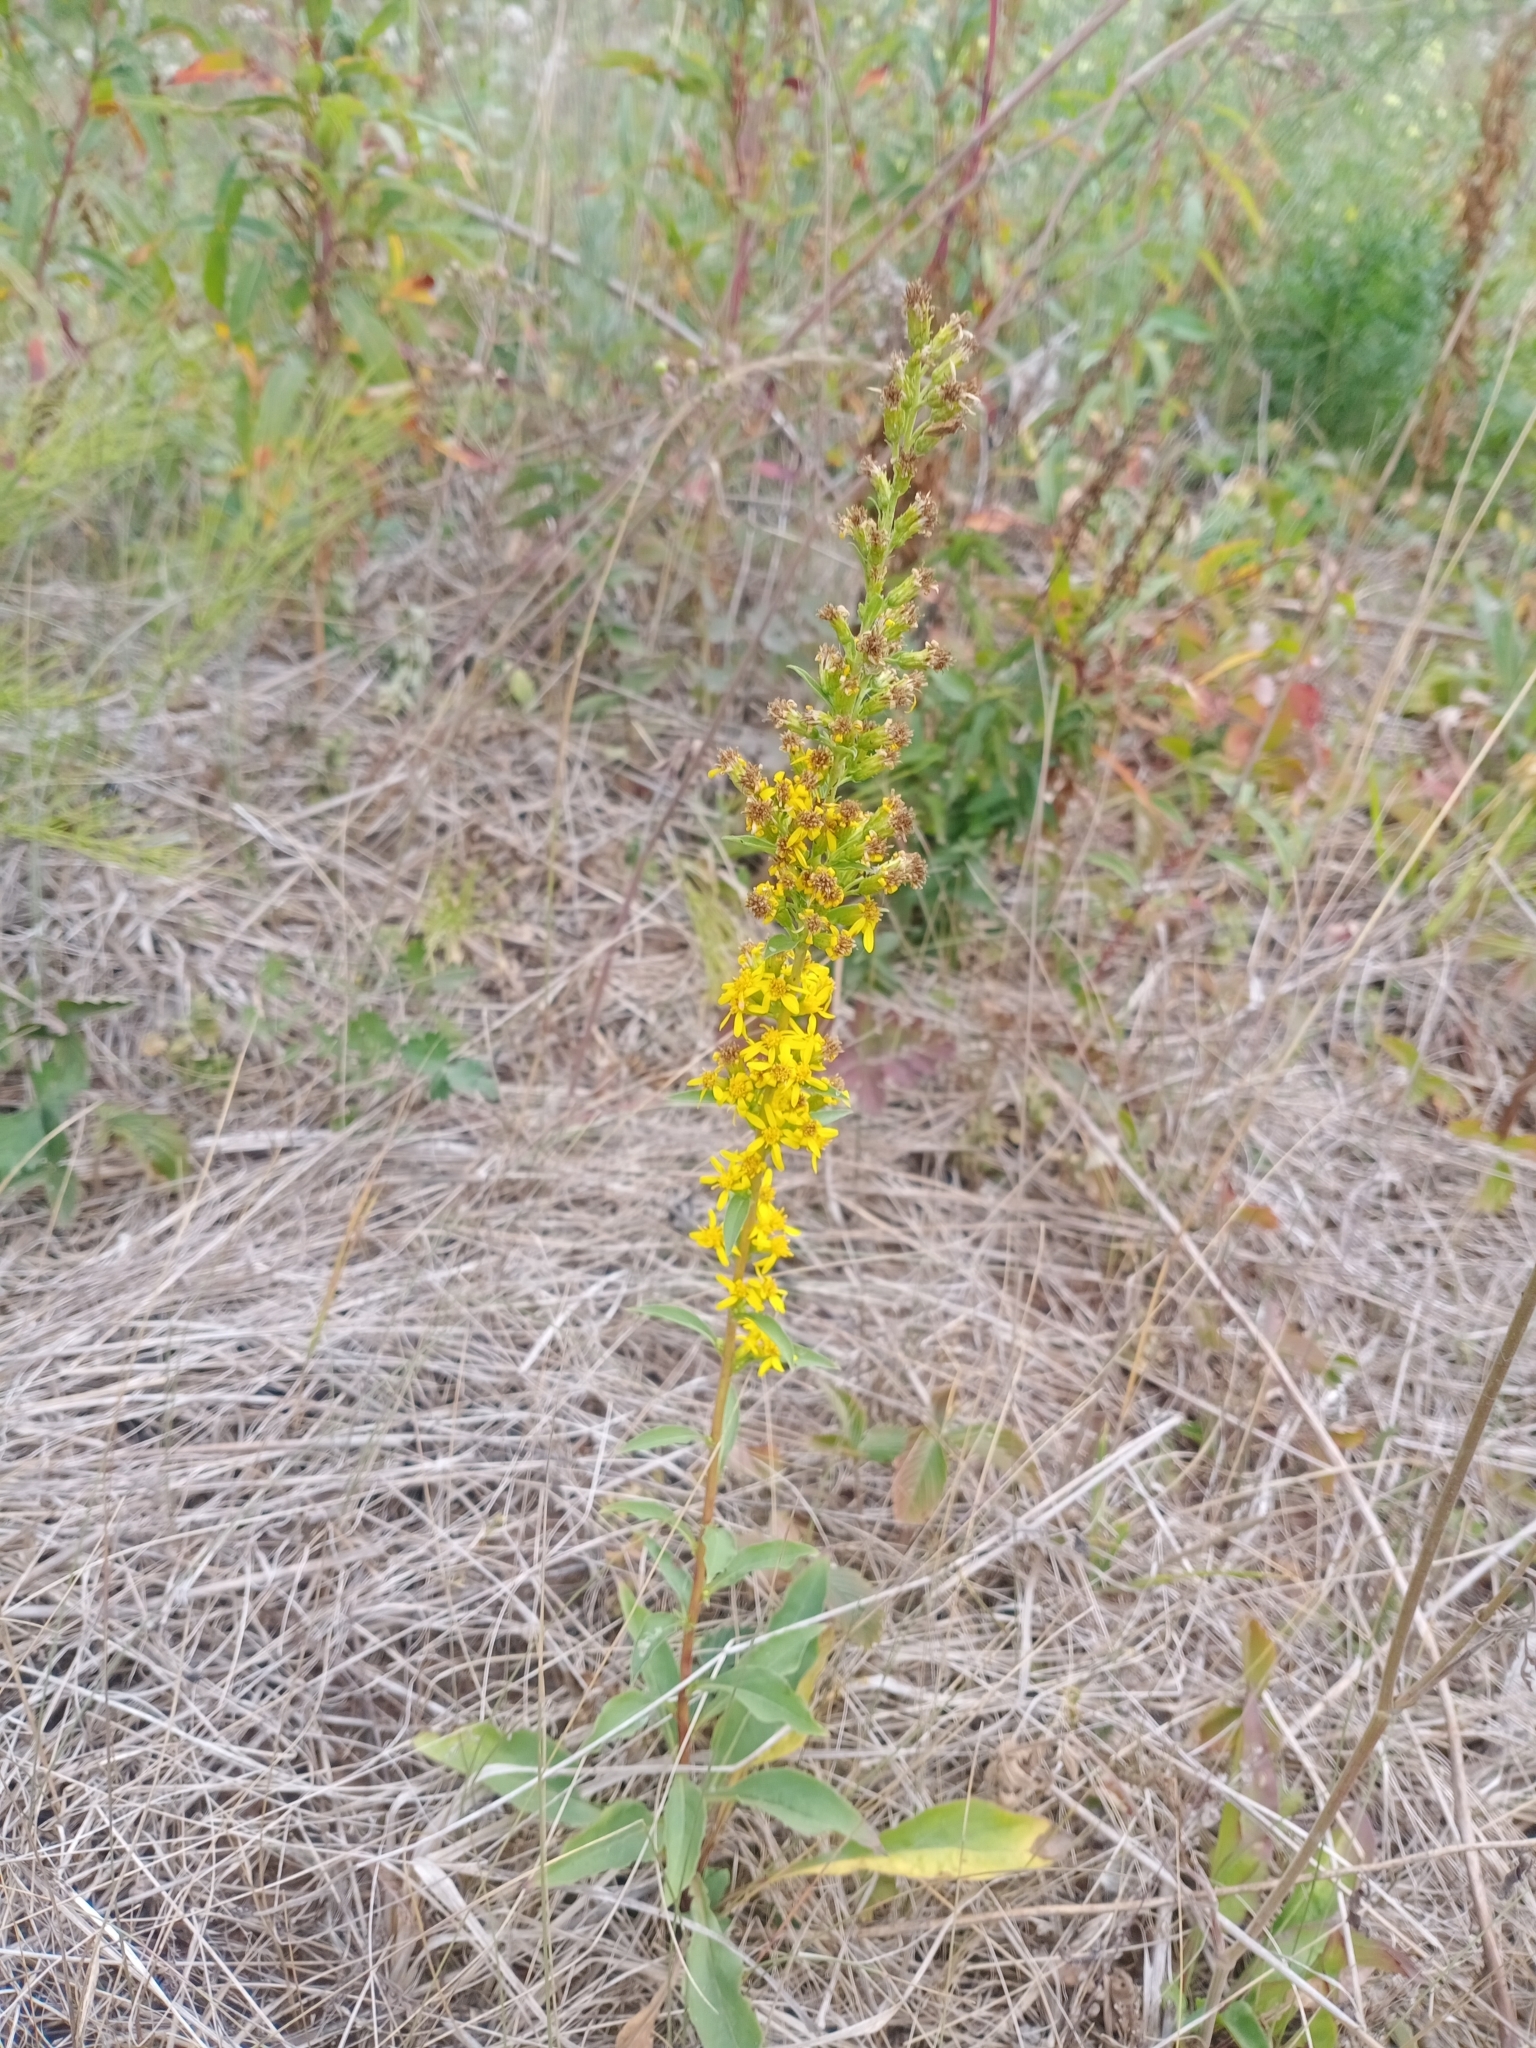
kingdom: Plantae
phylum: Tracheophyta
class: Magnoliopsida
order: Asterales
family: Asteraceae
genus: Solidago
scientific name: Solidago virgaurea
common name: Goldenrod
